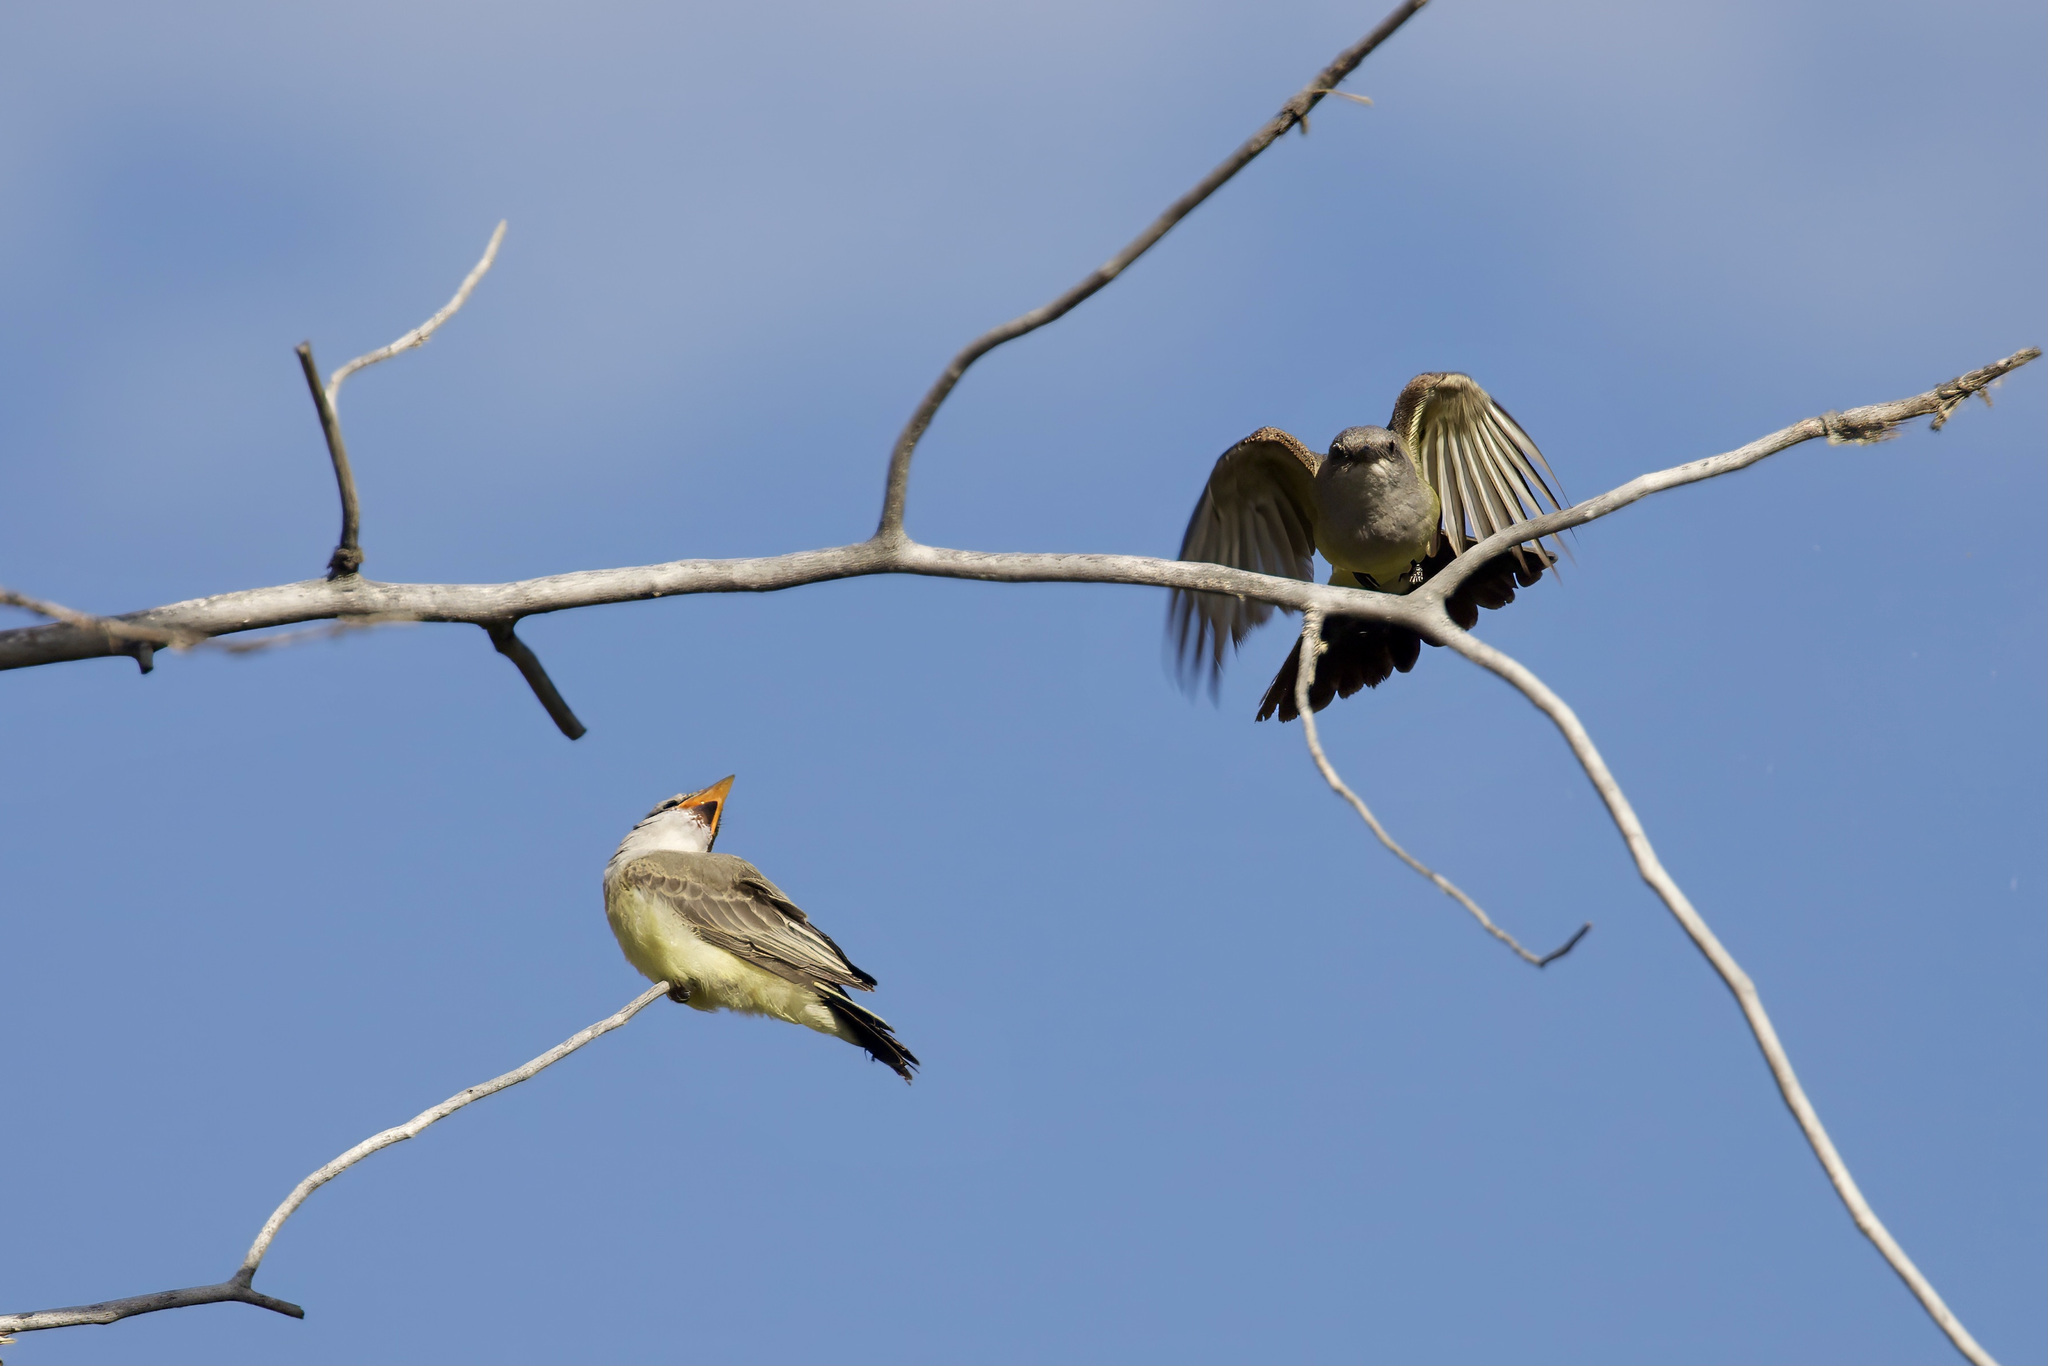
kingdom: Animalia
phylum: Chordata
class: Aves
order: Passeriformes
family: Tyrannidae
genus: Tyrannus
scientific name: Tyrannus verticalis
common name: Western kingbird
